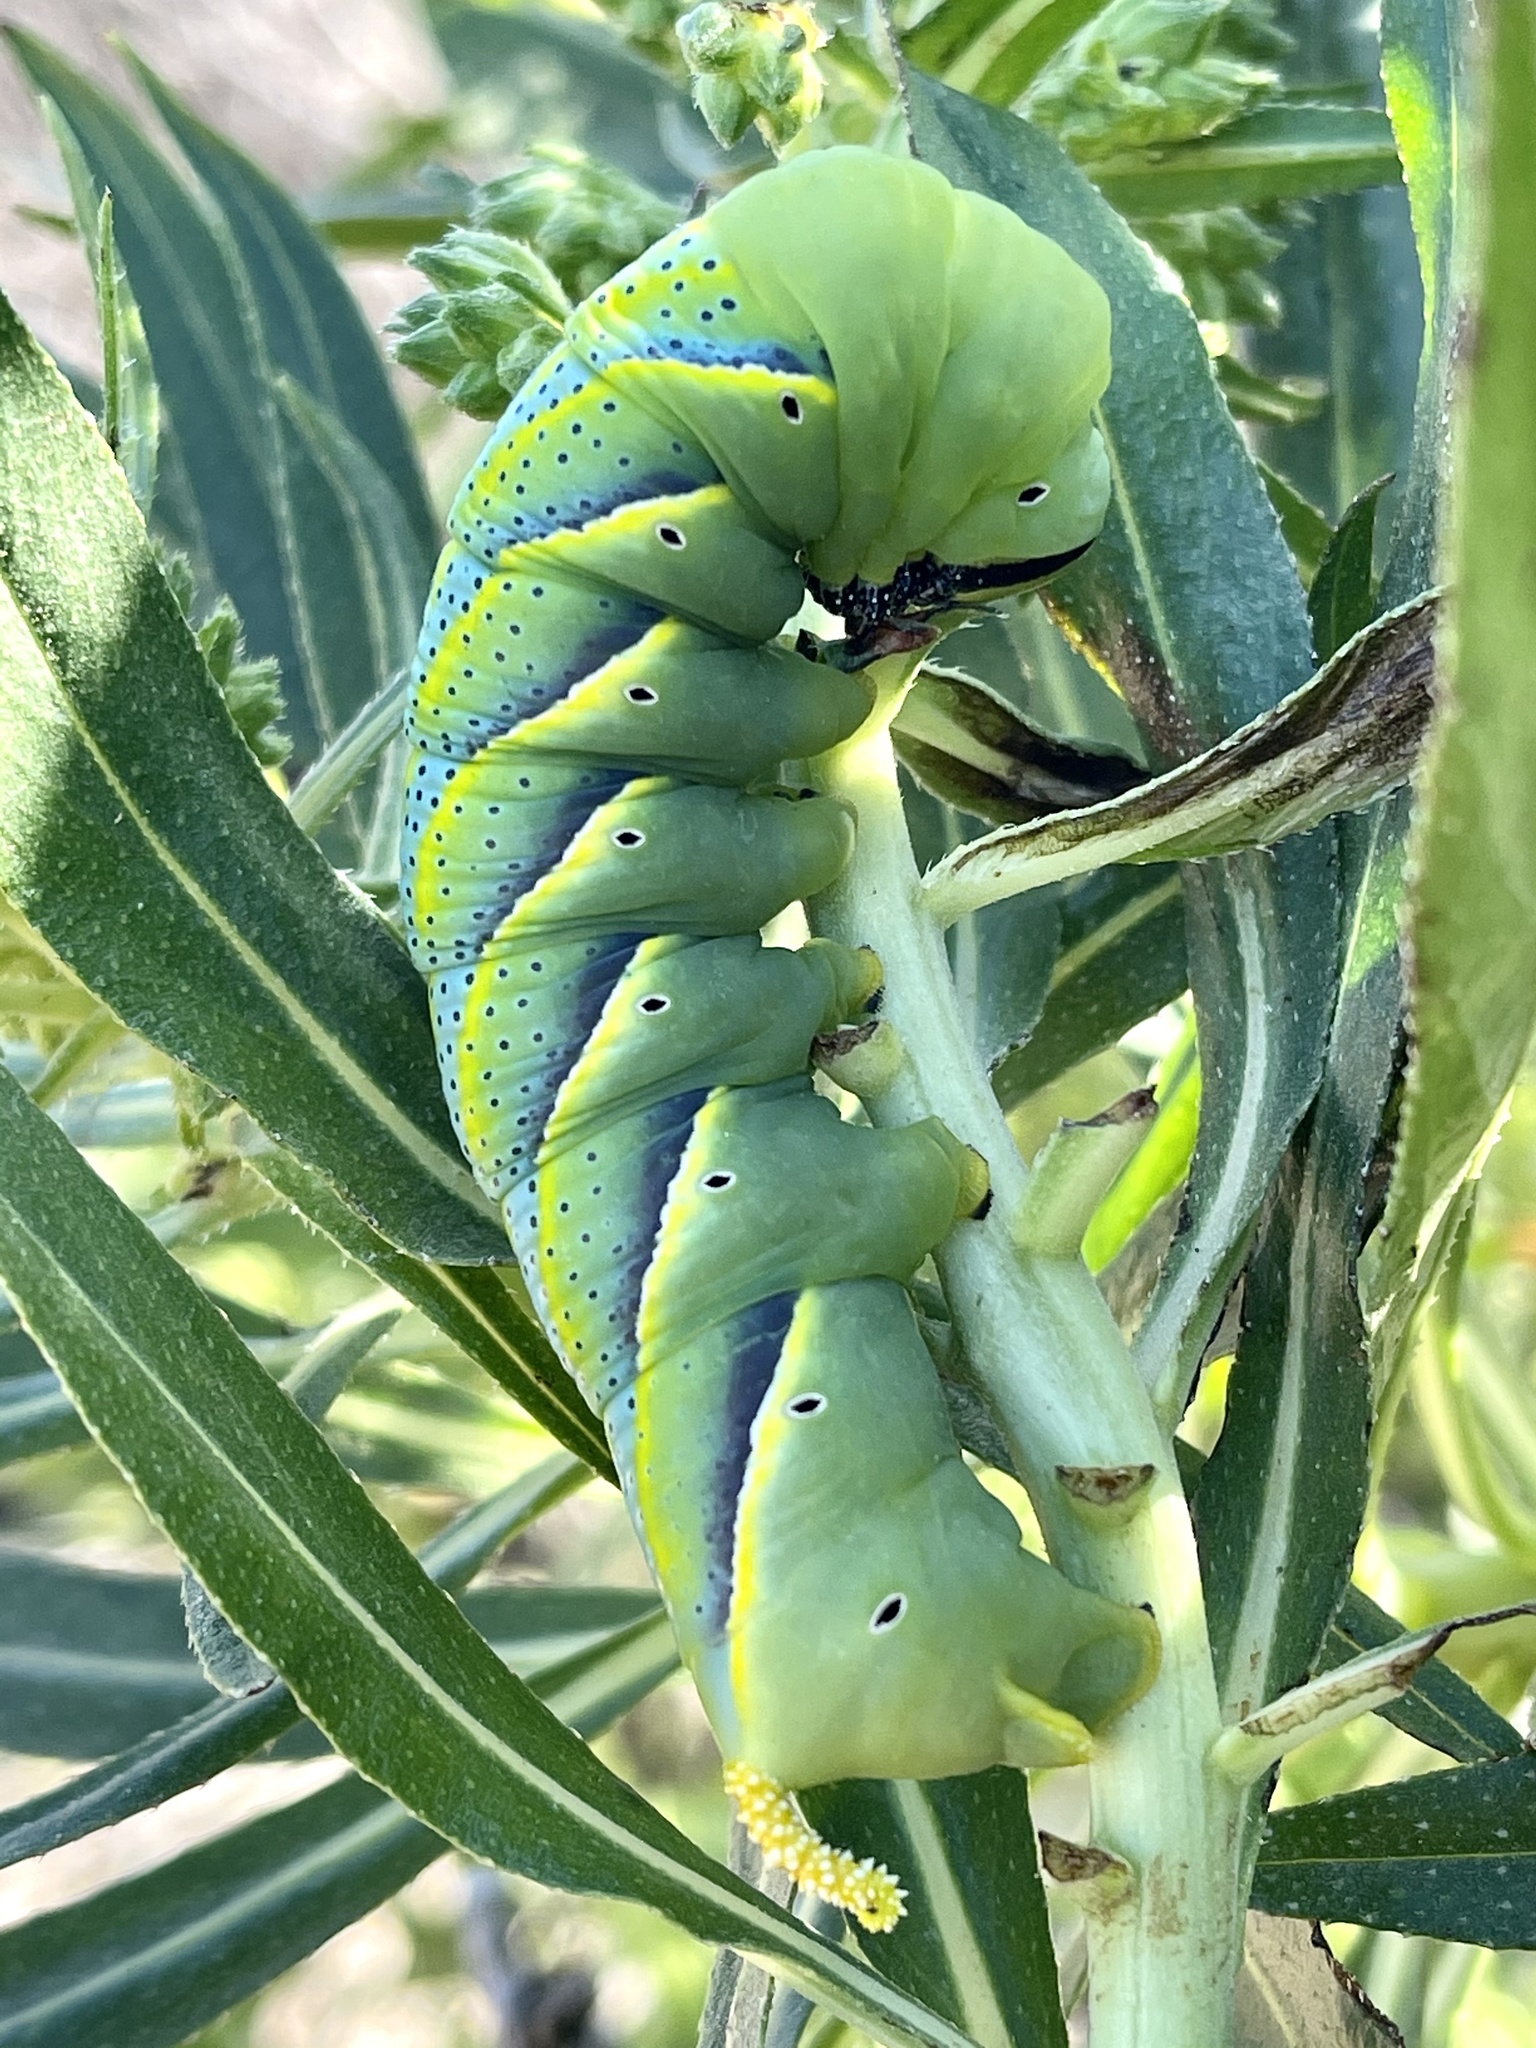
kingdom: Animalia
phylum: Arthropoda
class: Insecta
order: Lepidoptera
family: Sphingidae
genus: Acherontia
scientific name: Acherontia atropos
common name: Death's-head hawk moth
